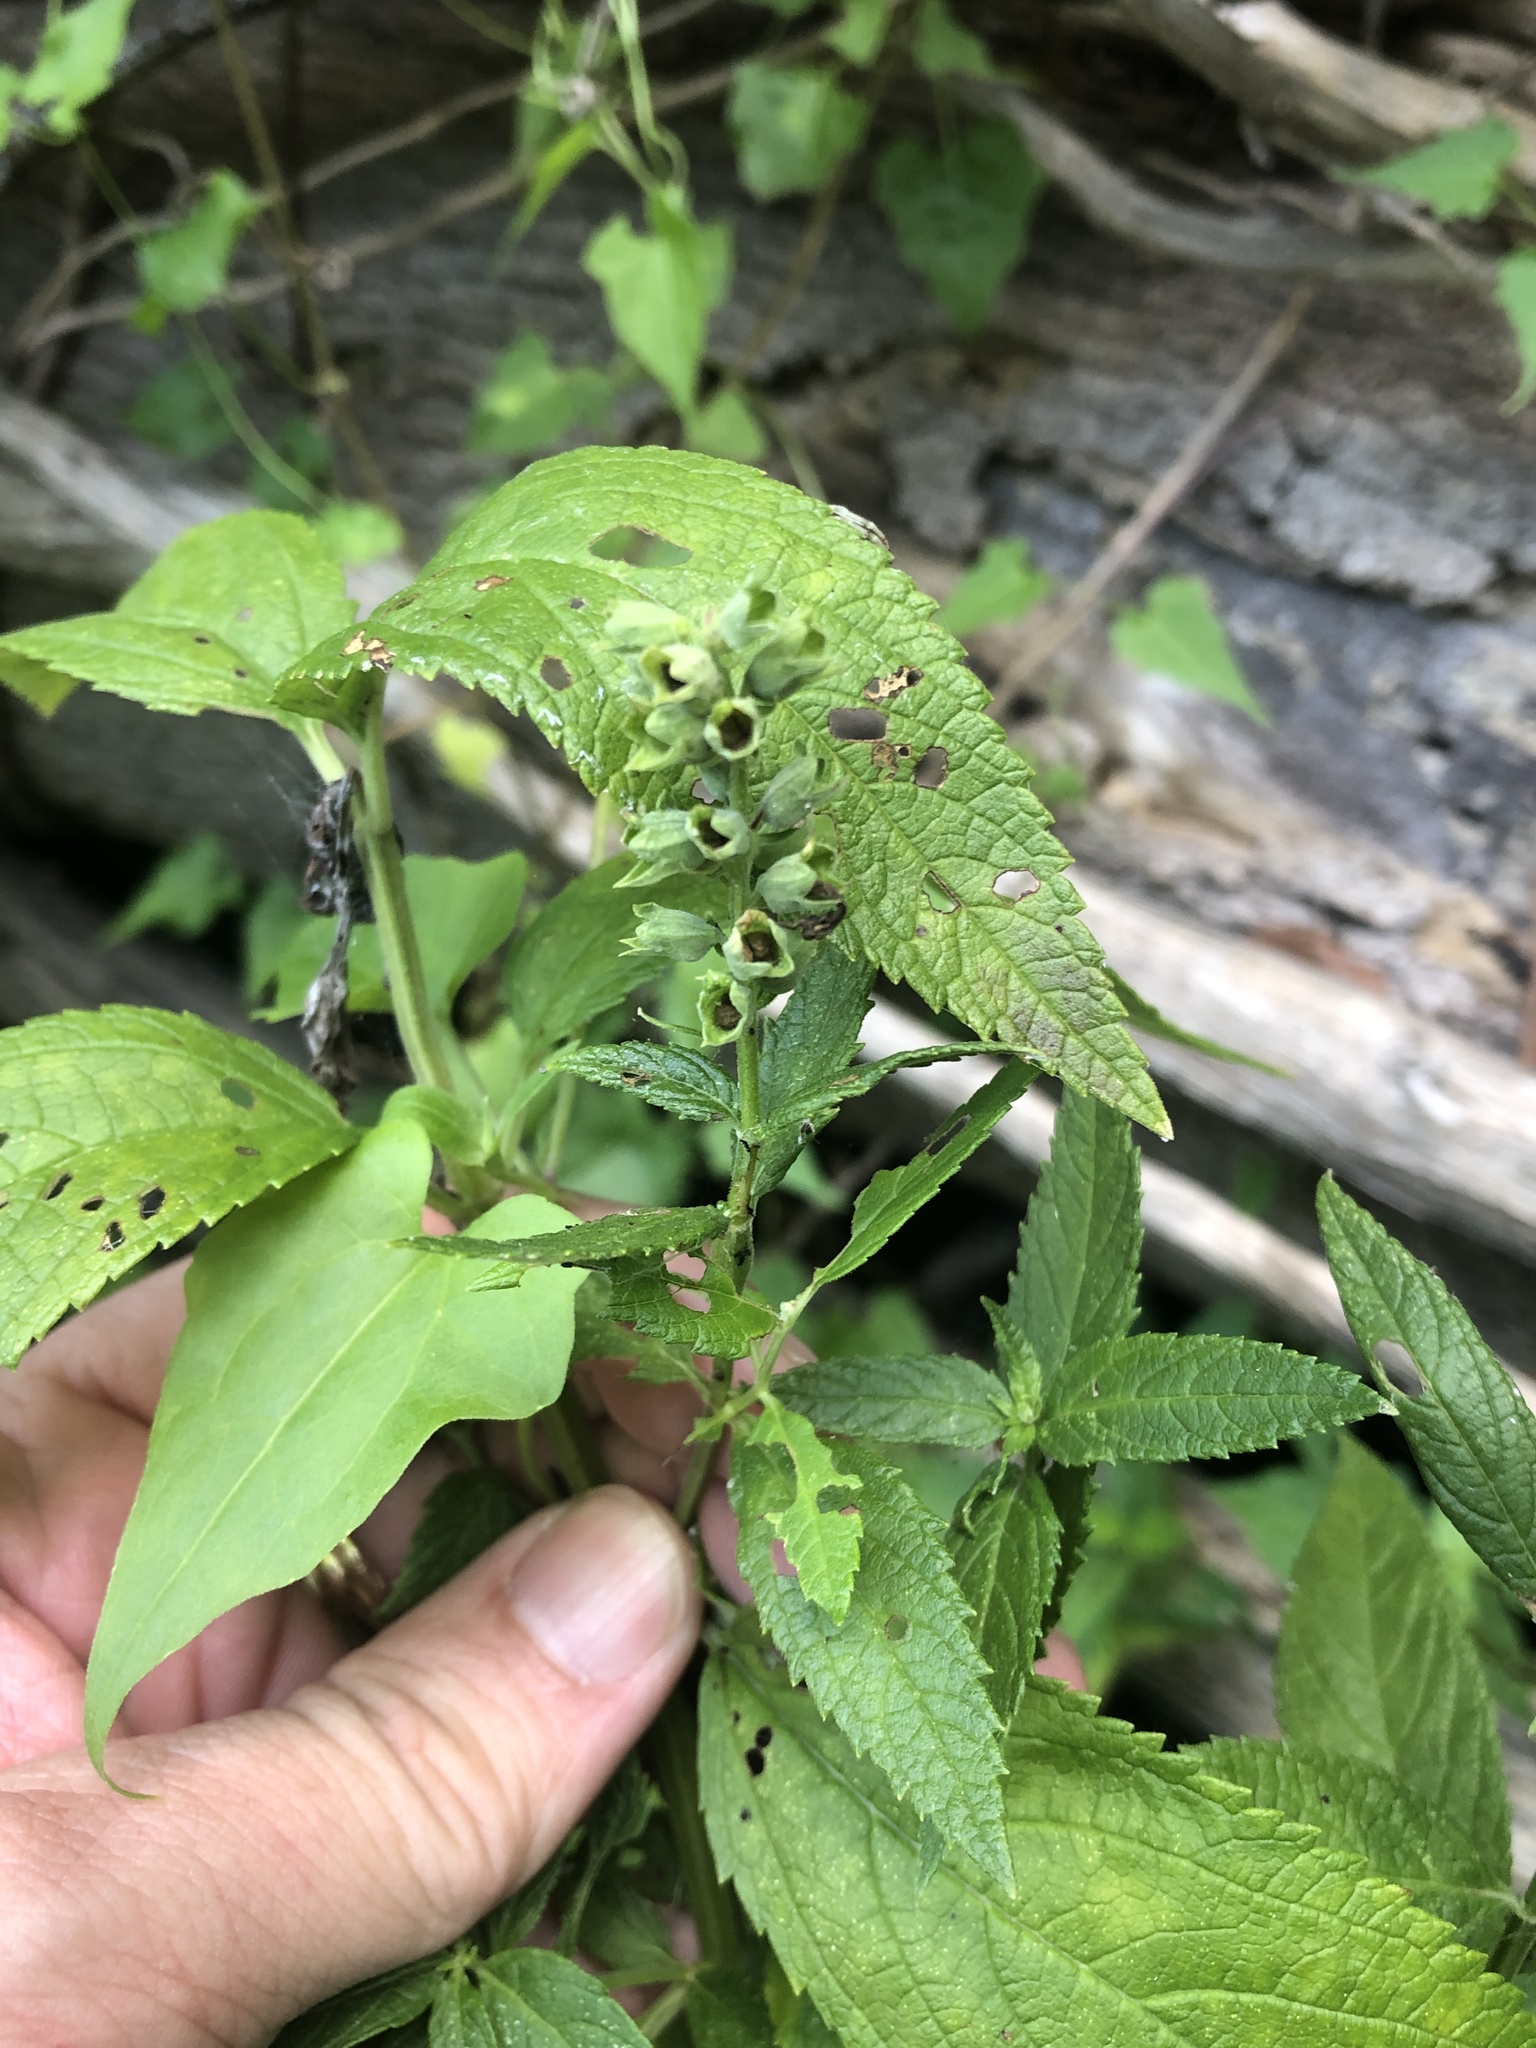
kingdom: Plantae
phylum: Tracheophyta
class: Magnoliopsida
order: Lamiales
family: Lamiaceae
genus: Teucrium
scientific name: Teucrium canadense
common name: American germander
